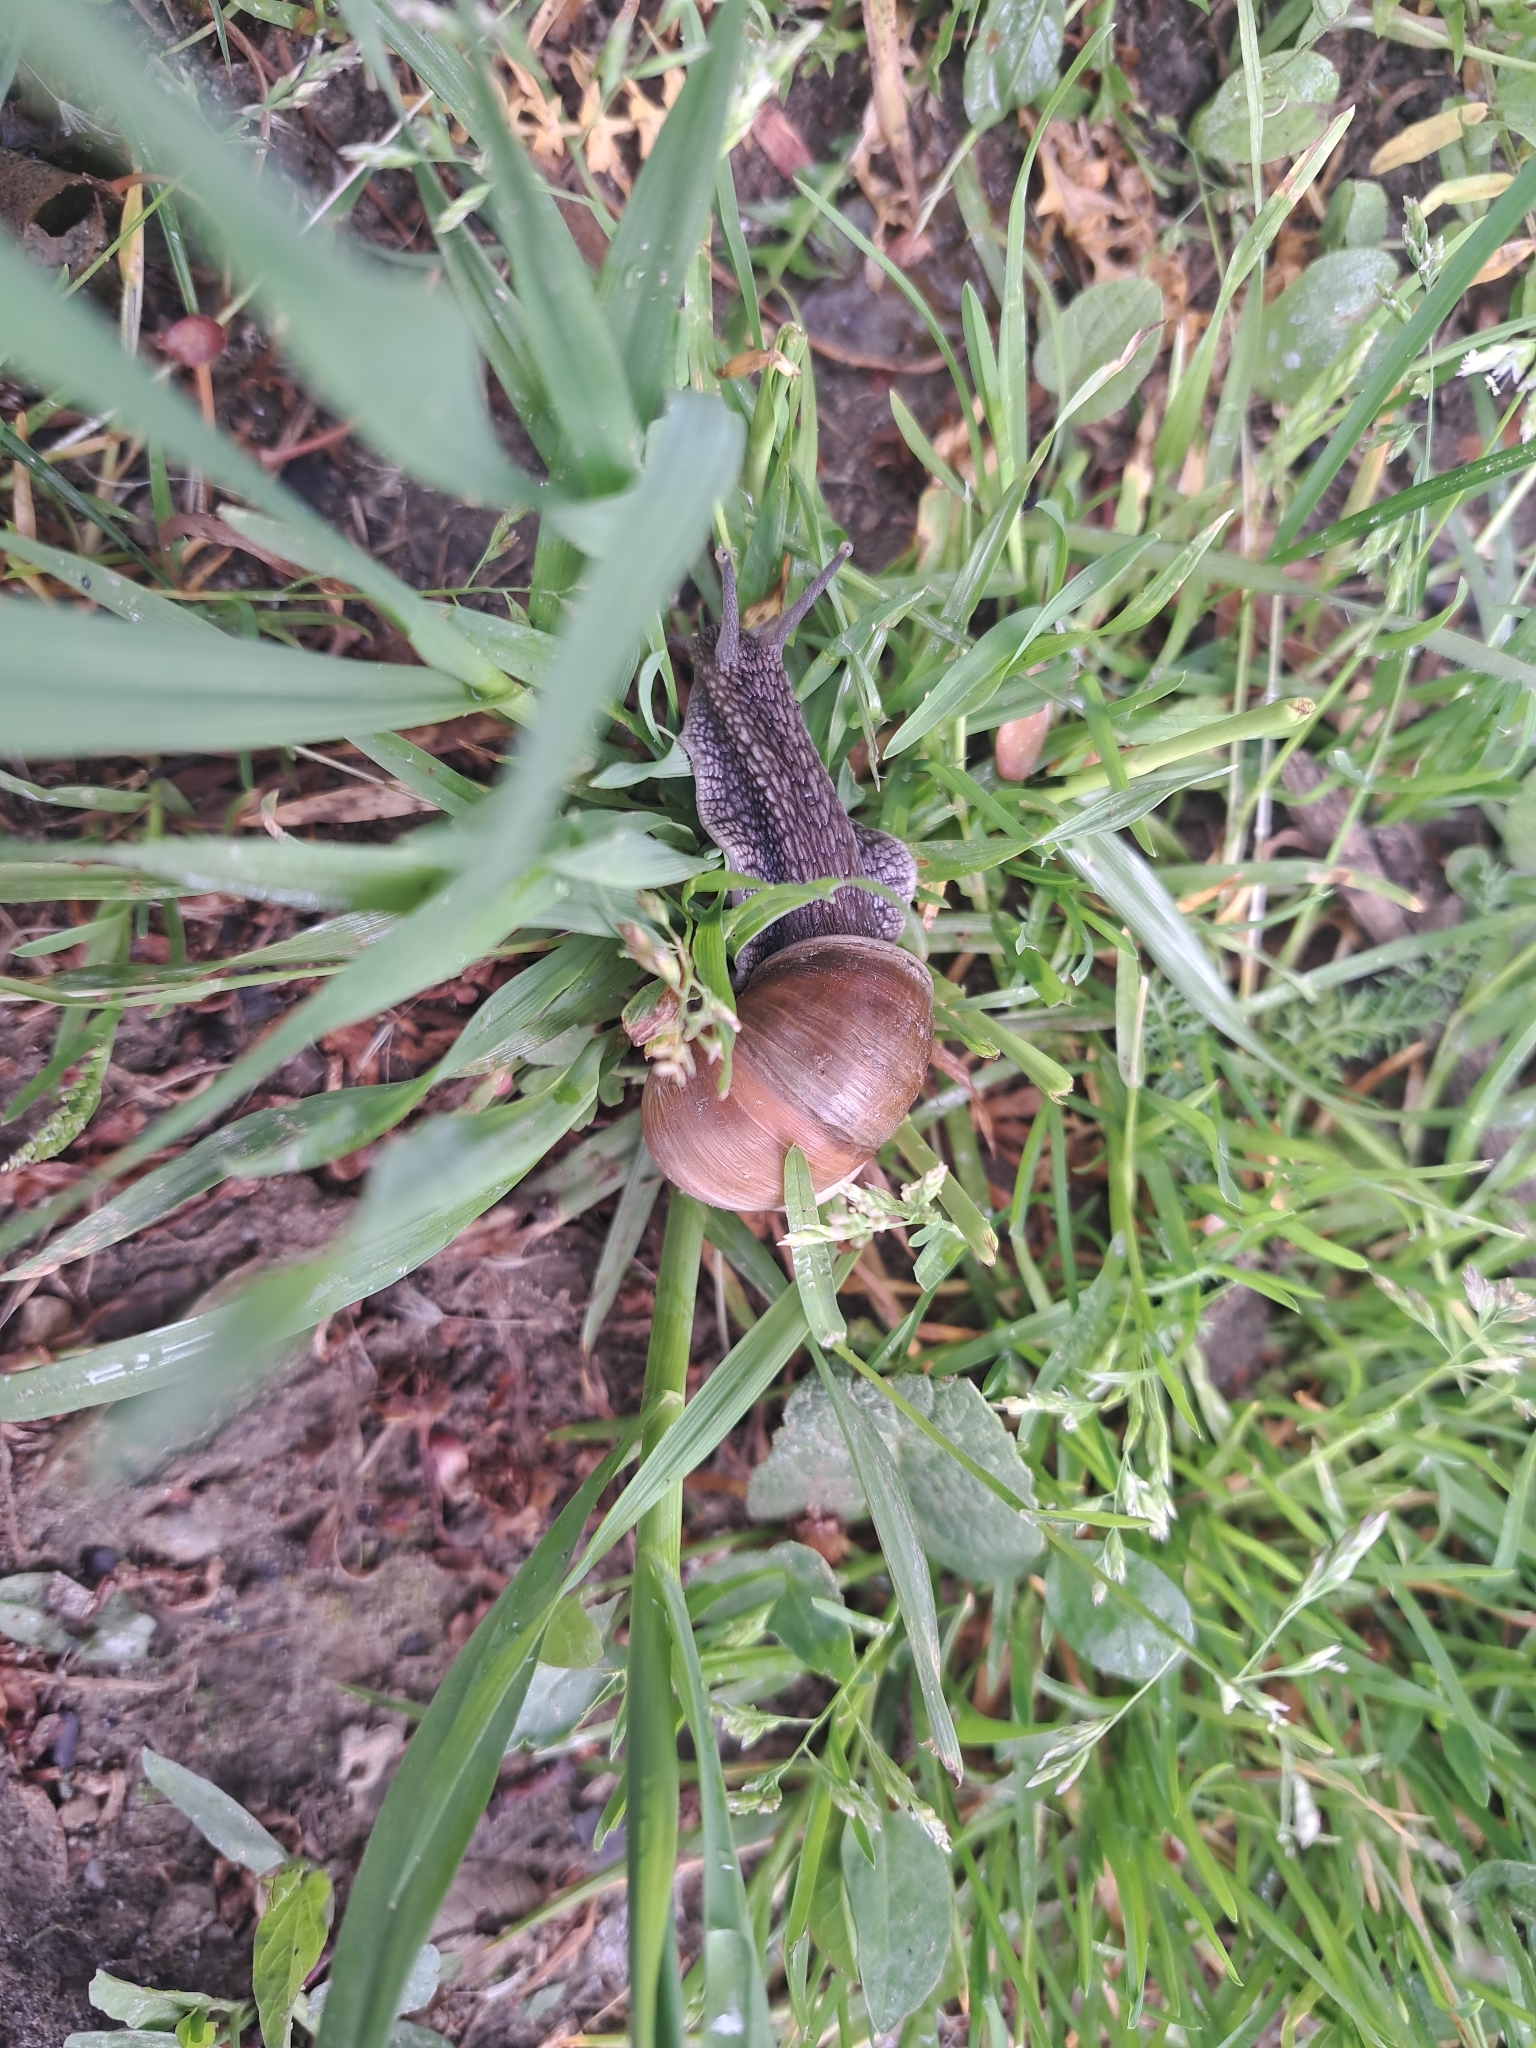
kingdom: Animalia
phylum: Mollusca
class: Gastropoda
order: Stylommatophora
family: Helicidae
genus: Helix
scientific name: Helix lutescens
